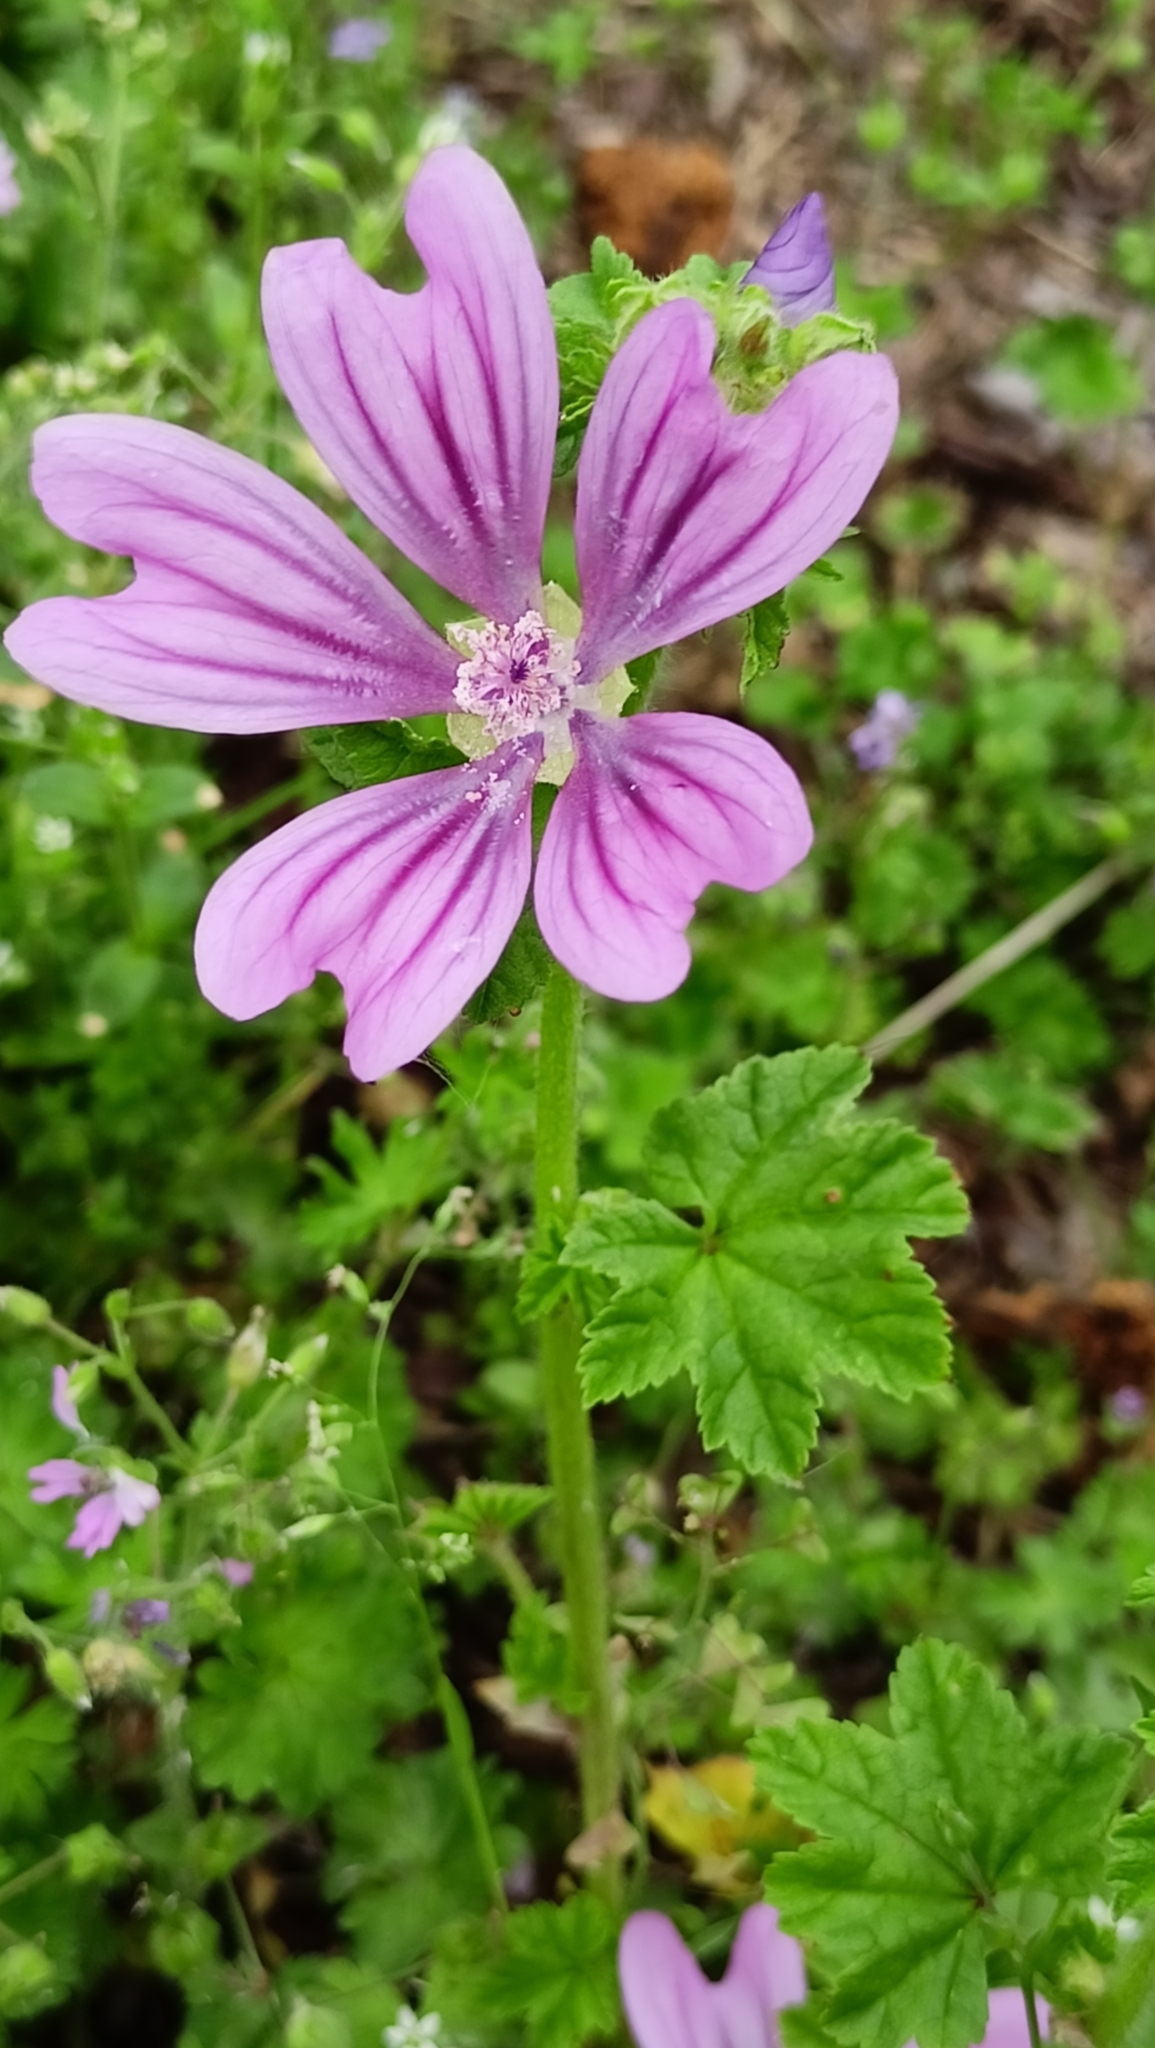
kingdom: Plantae
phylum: Tracheophyta
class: Magnoliopsida
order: Malvales
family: Malvaceae
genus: Malva
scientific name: Malva sylvestris
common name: Common mallow
